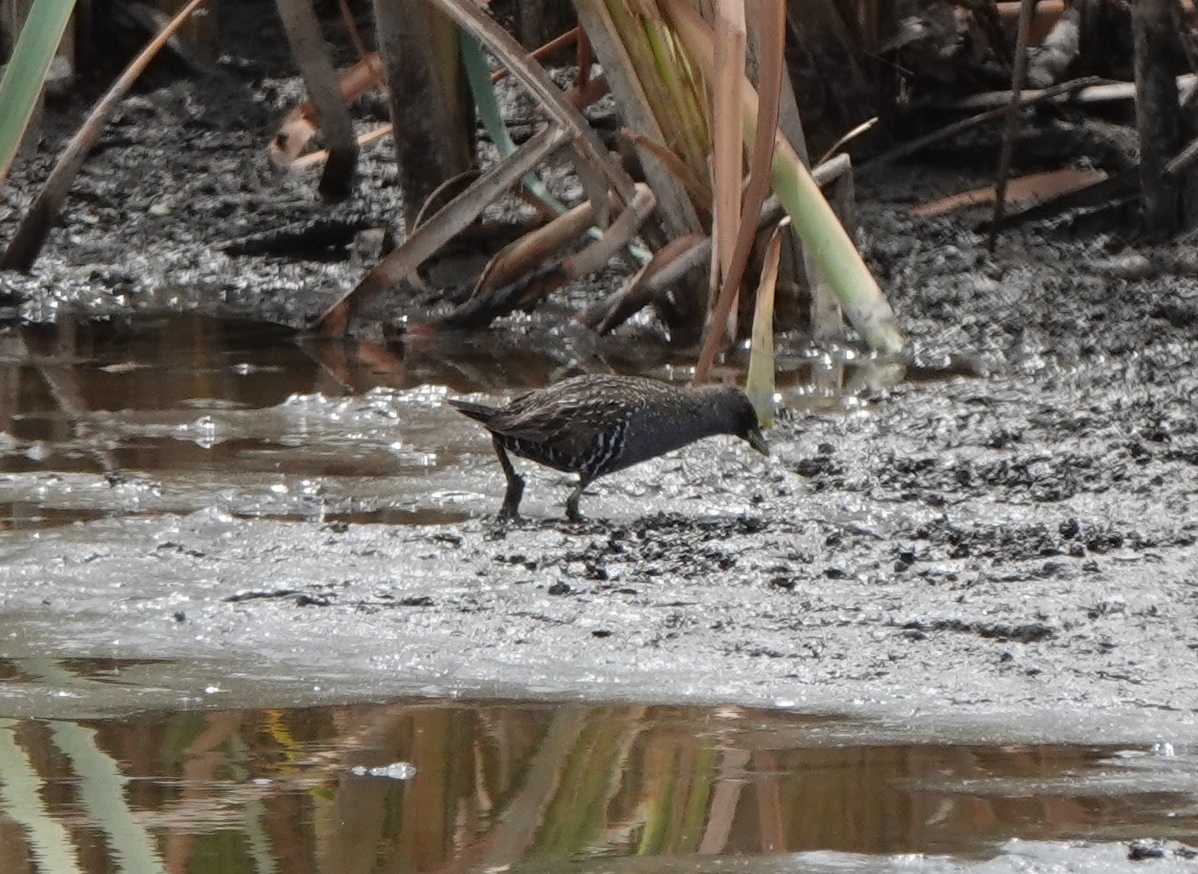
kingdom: Animalia
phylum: Chordata
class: Aves
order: Gruiformes
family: Rallidae
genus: Porzana
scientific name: Porzana fluminea
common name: Australian crake
